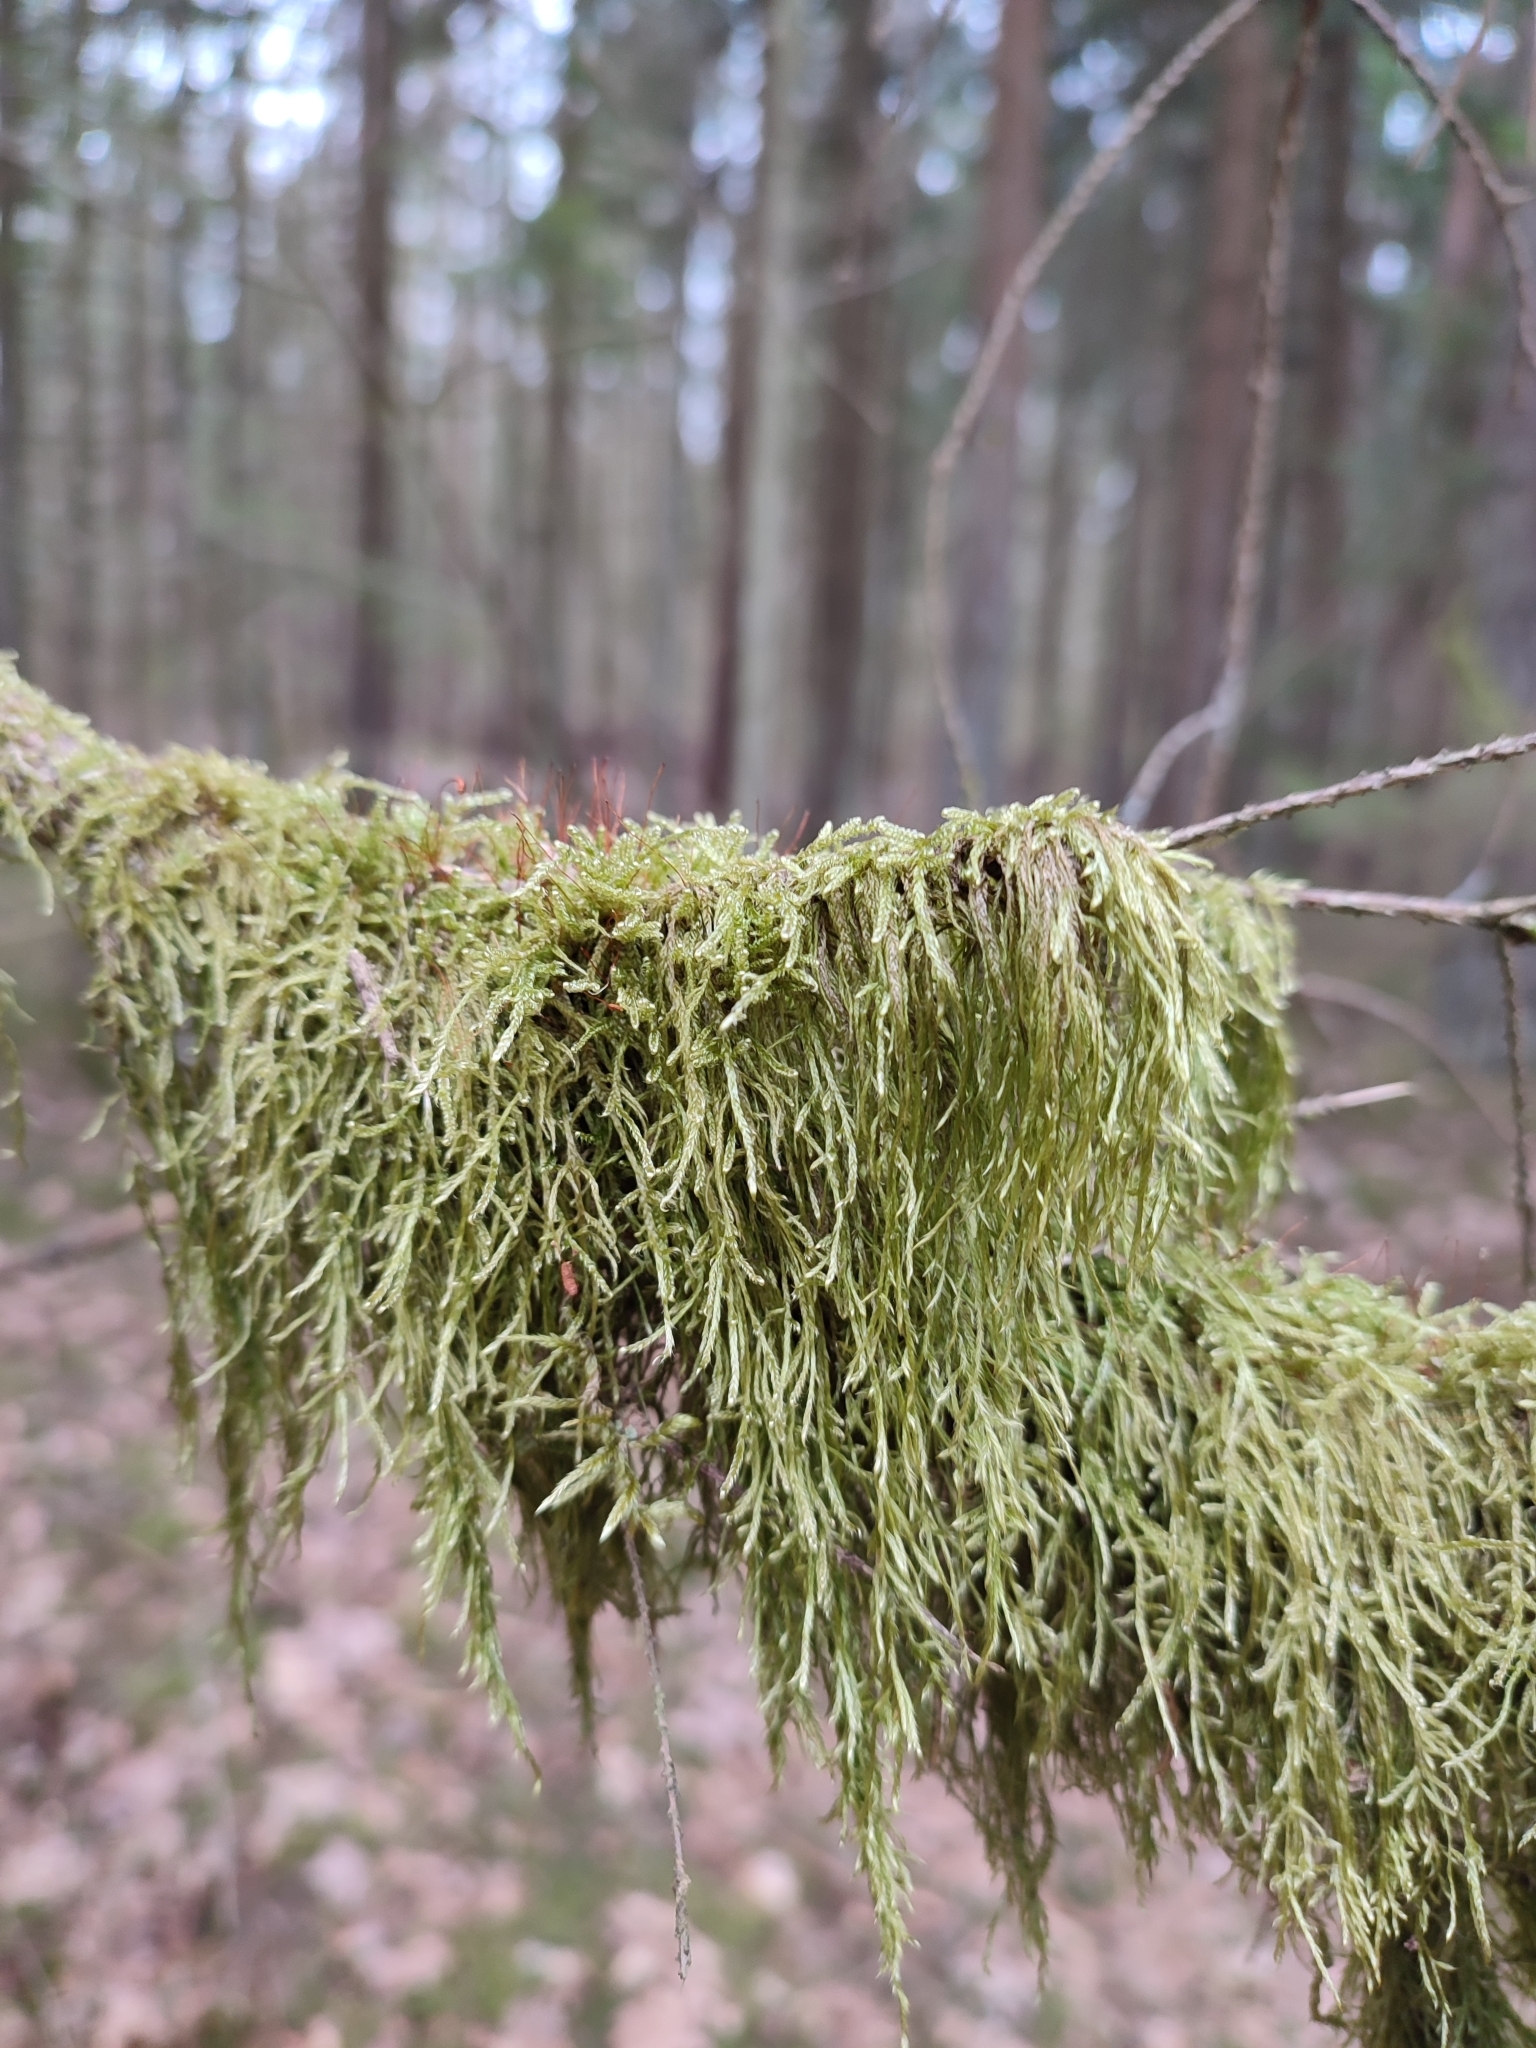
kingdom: Plantae
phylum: Bryophyta
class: Bryopsida
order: Hypnales
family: Hypnaceae
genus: Hypnum
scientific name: Hypnum cupressiforme
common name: Cypress-leaved plait-moss
